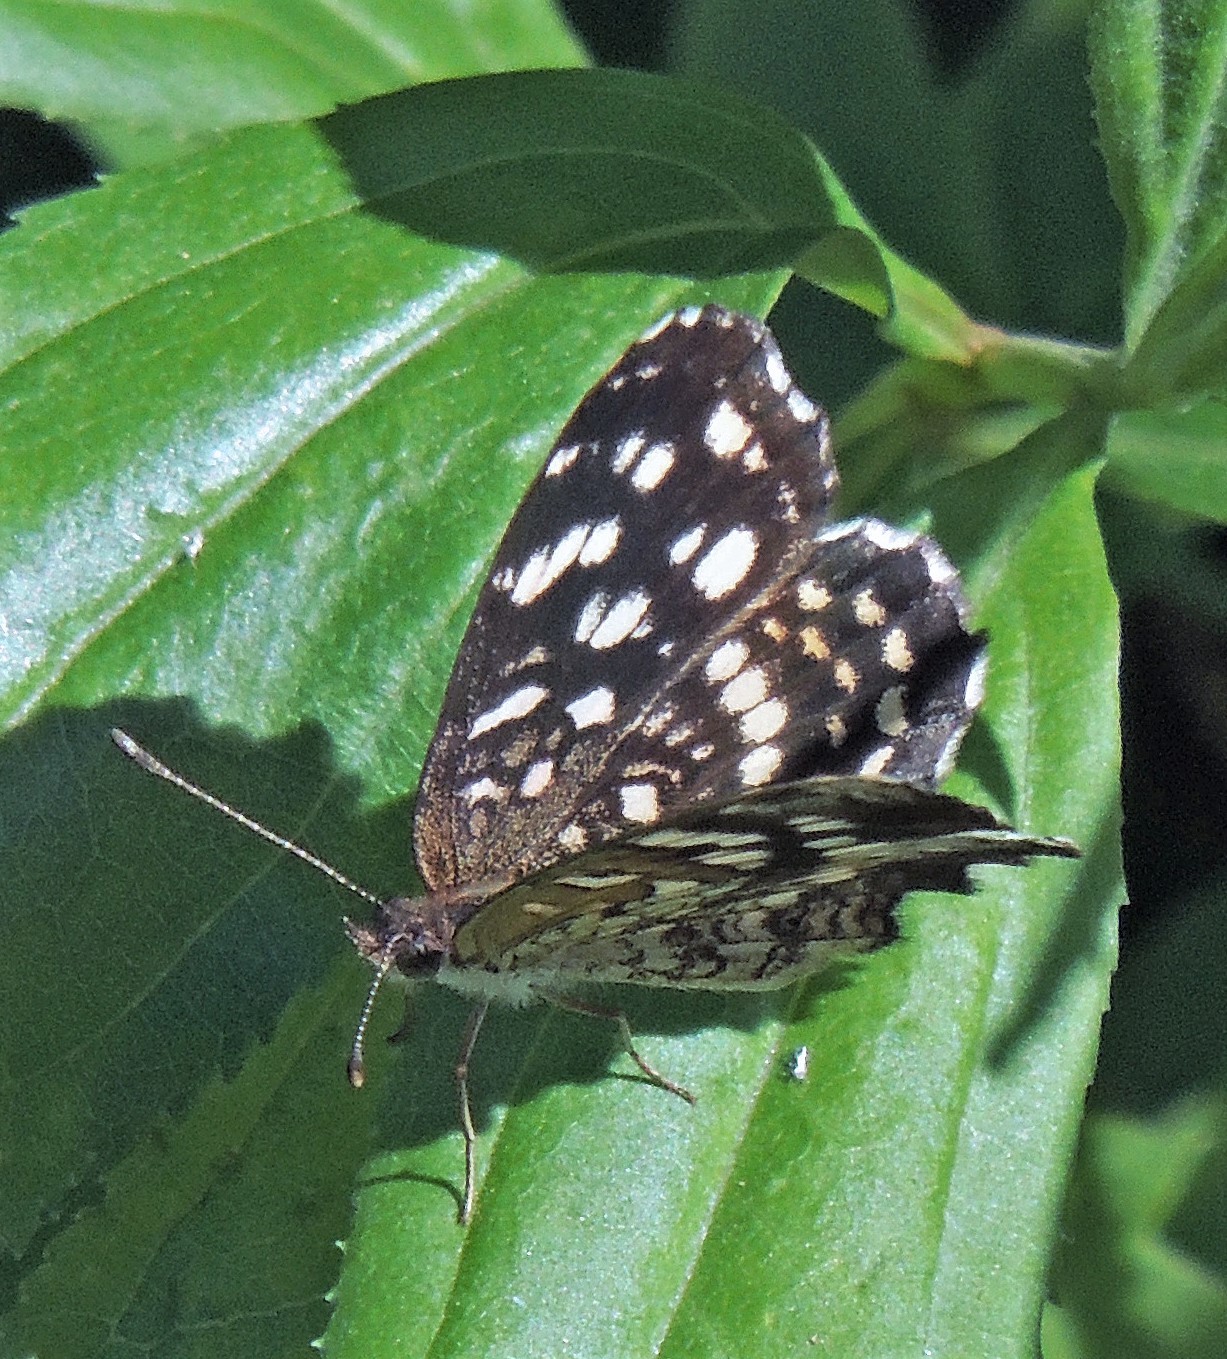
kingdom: Animalia
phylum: Arthropoda
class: Insecta
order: Lepidoptera
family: Nymphalidae
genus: Anthanassa
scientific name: Anthanassa hermas
